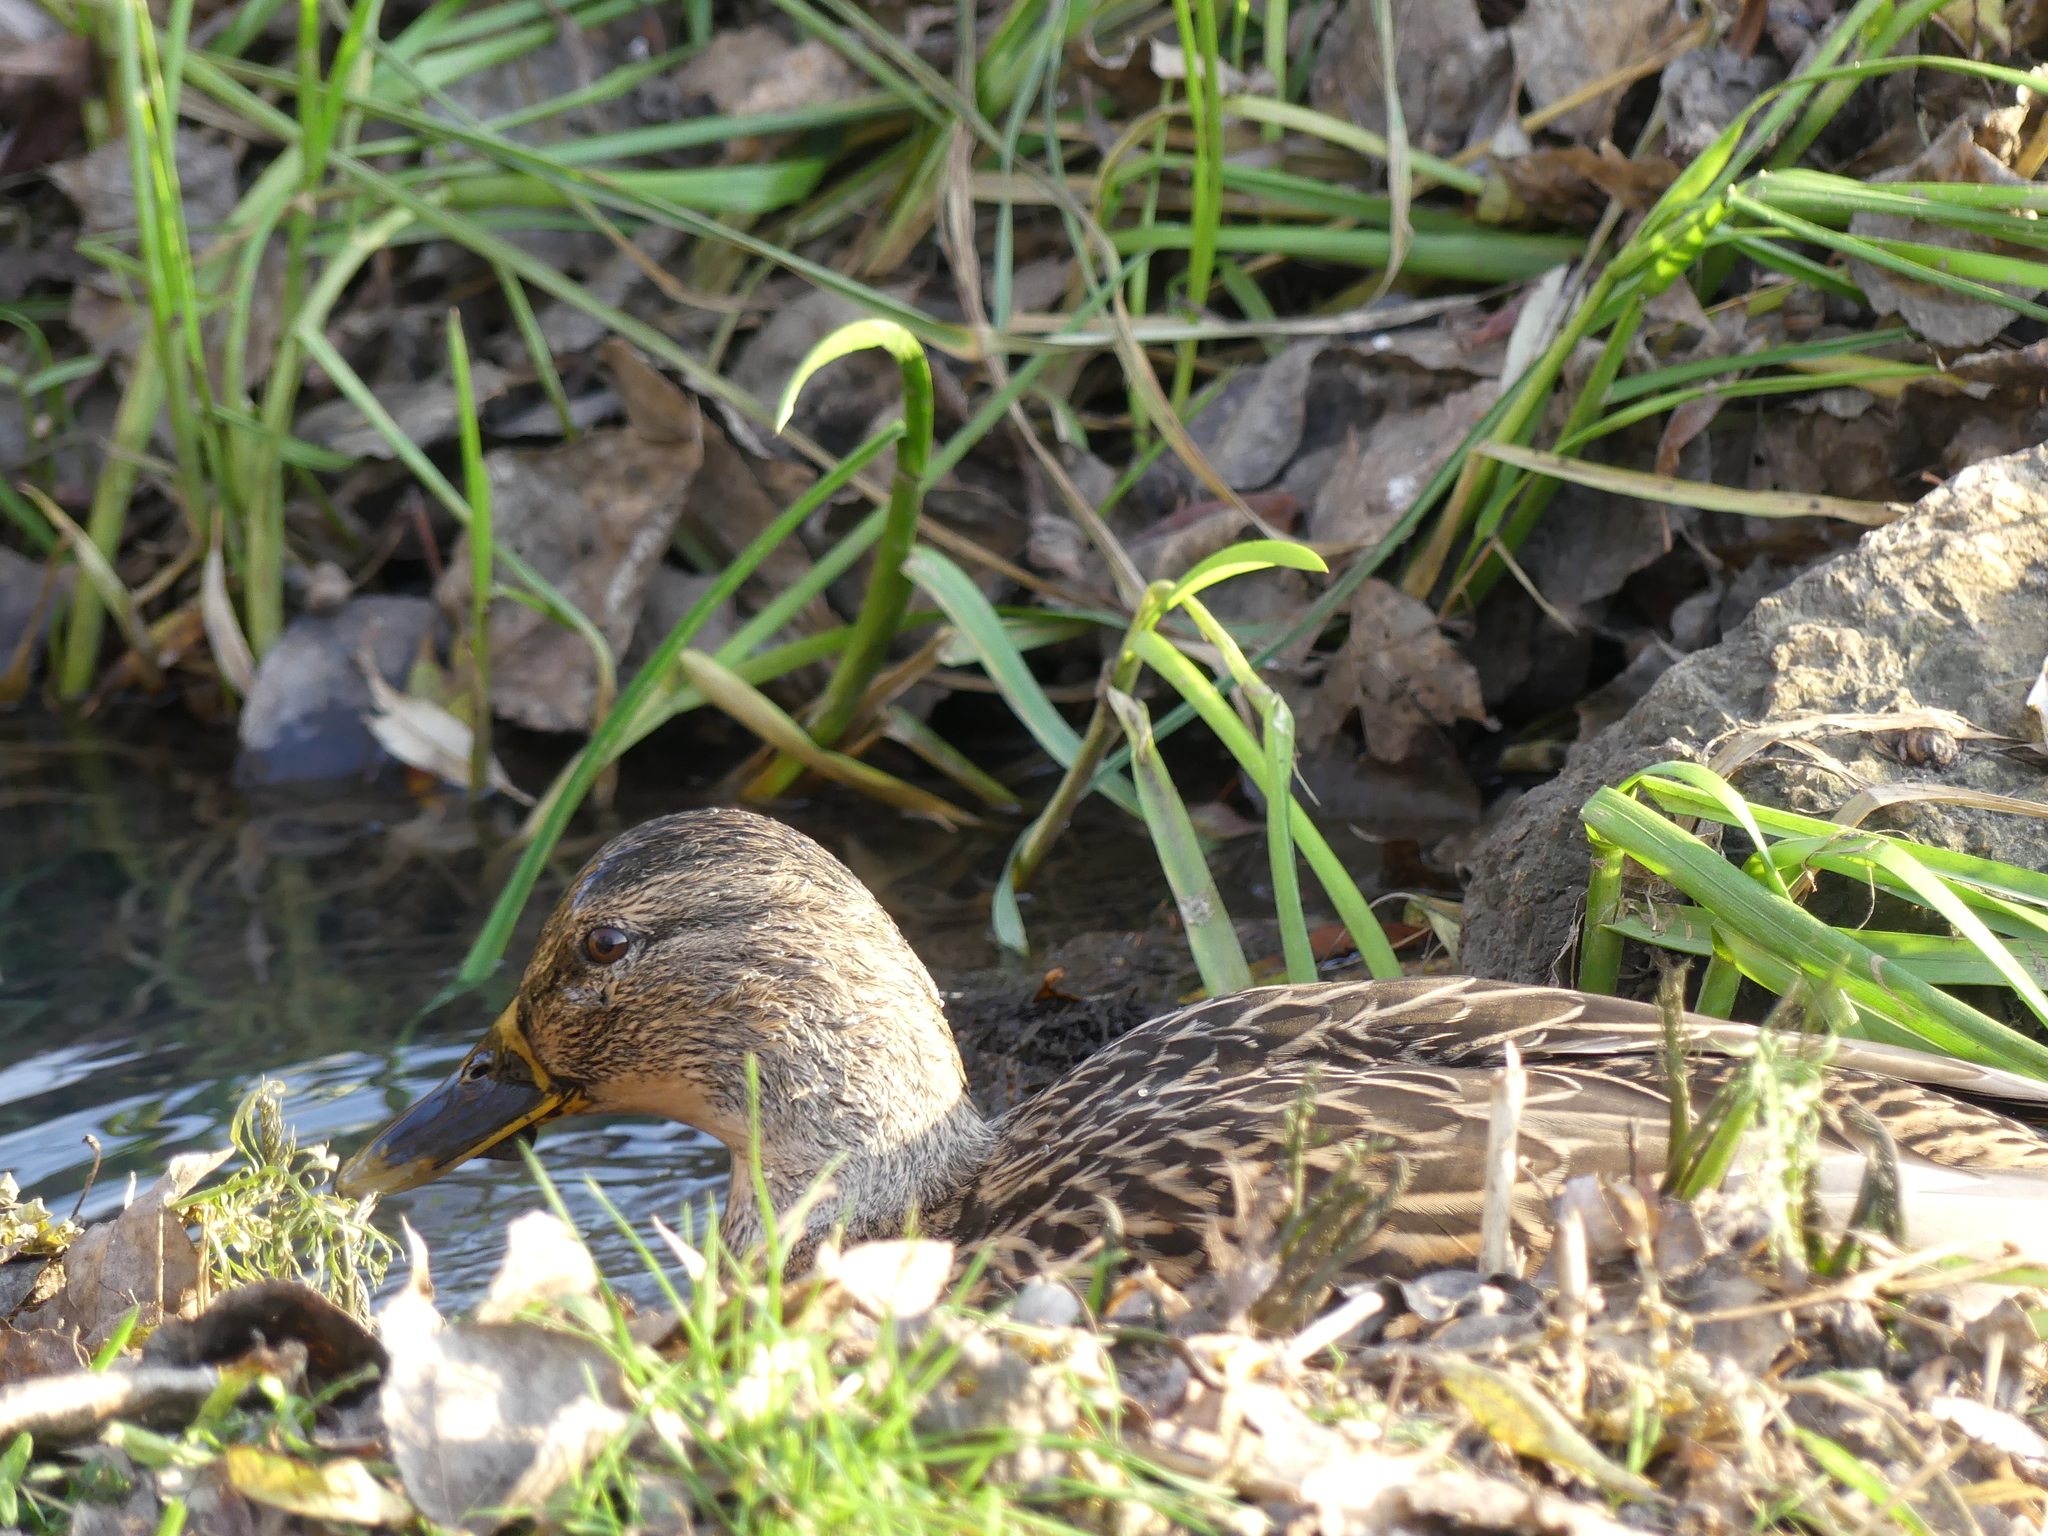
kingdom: Animalia
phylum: Chordata
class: Aves
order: Anseriformes
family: Anatidae
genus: Anas
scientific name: Anas platyrhynchos
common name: Mallard
